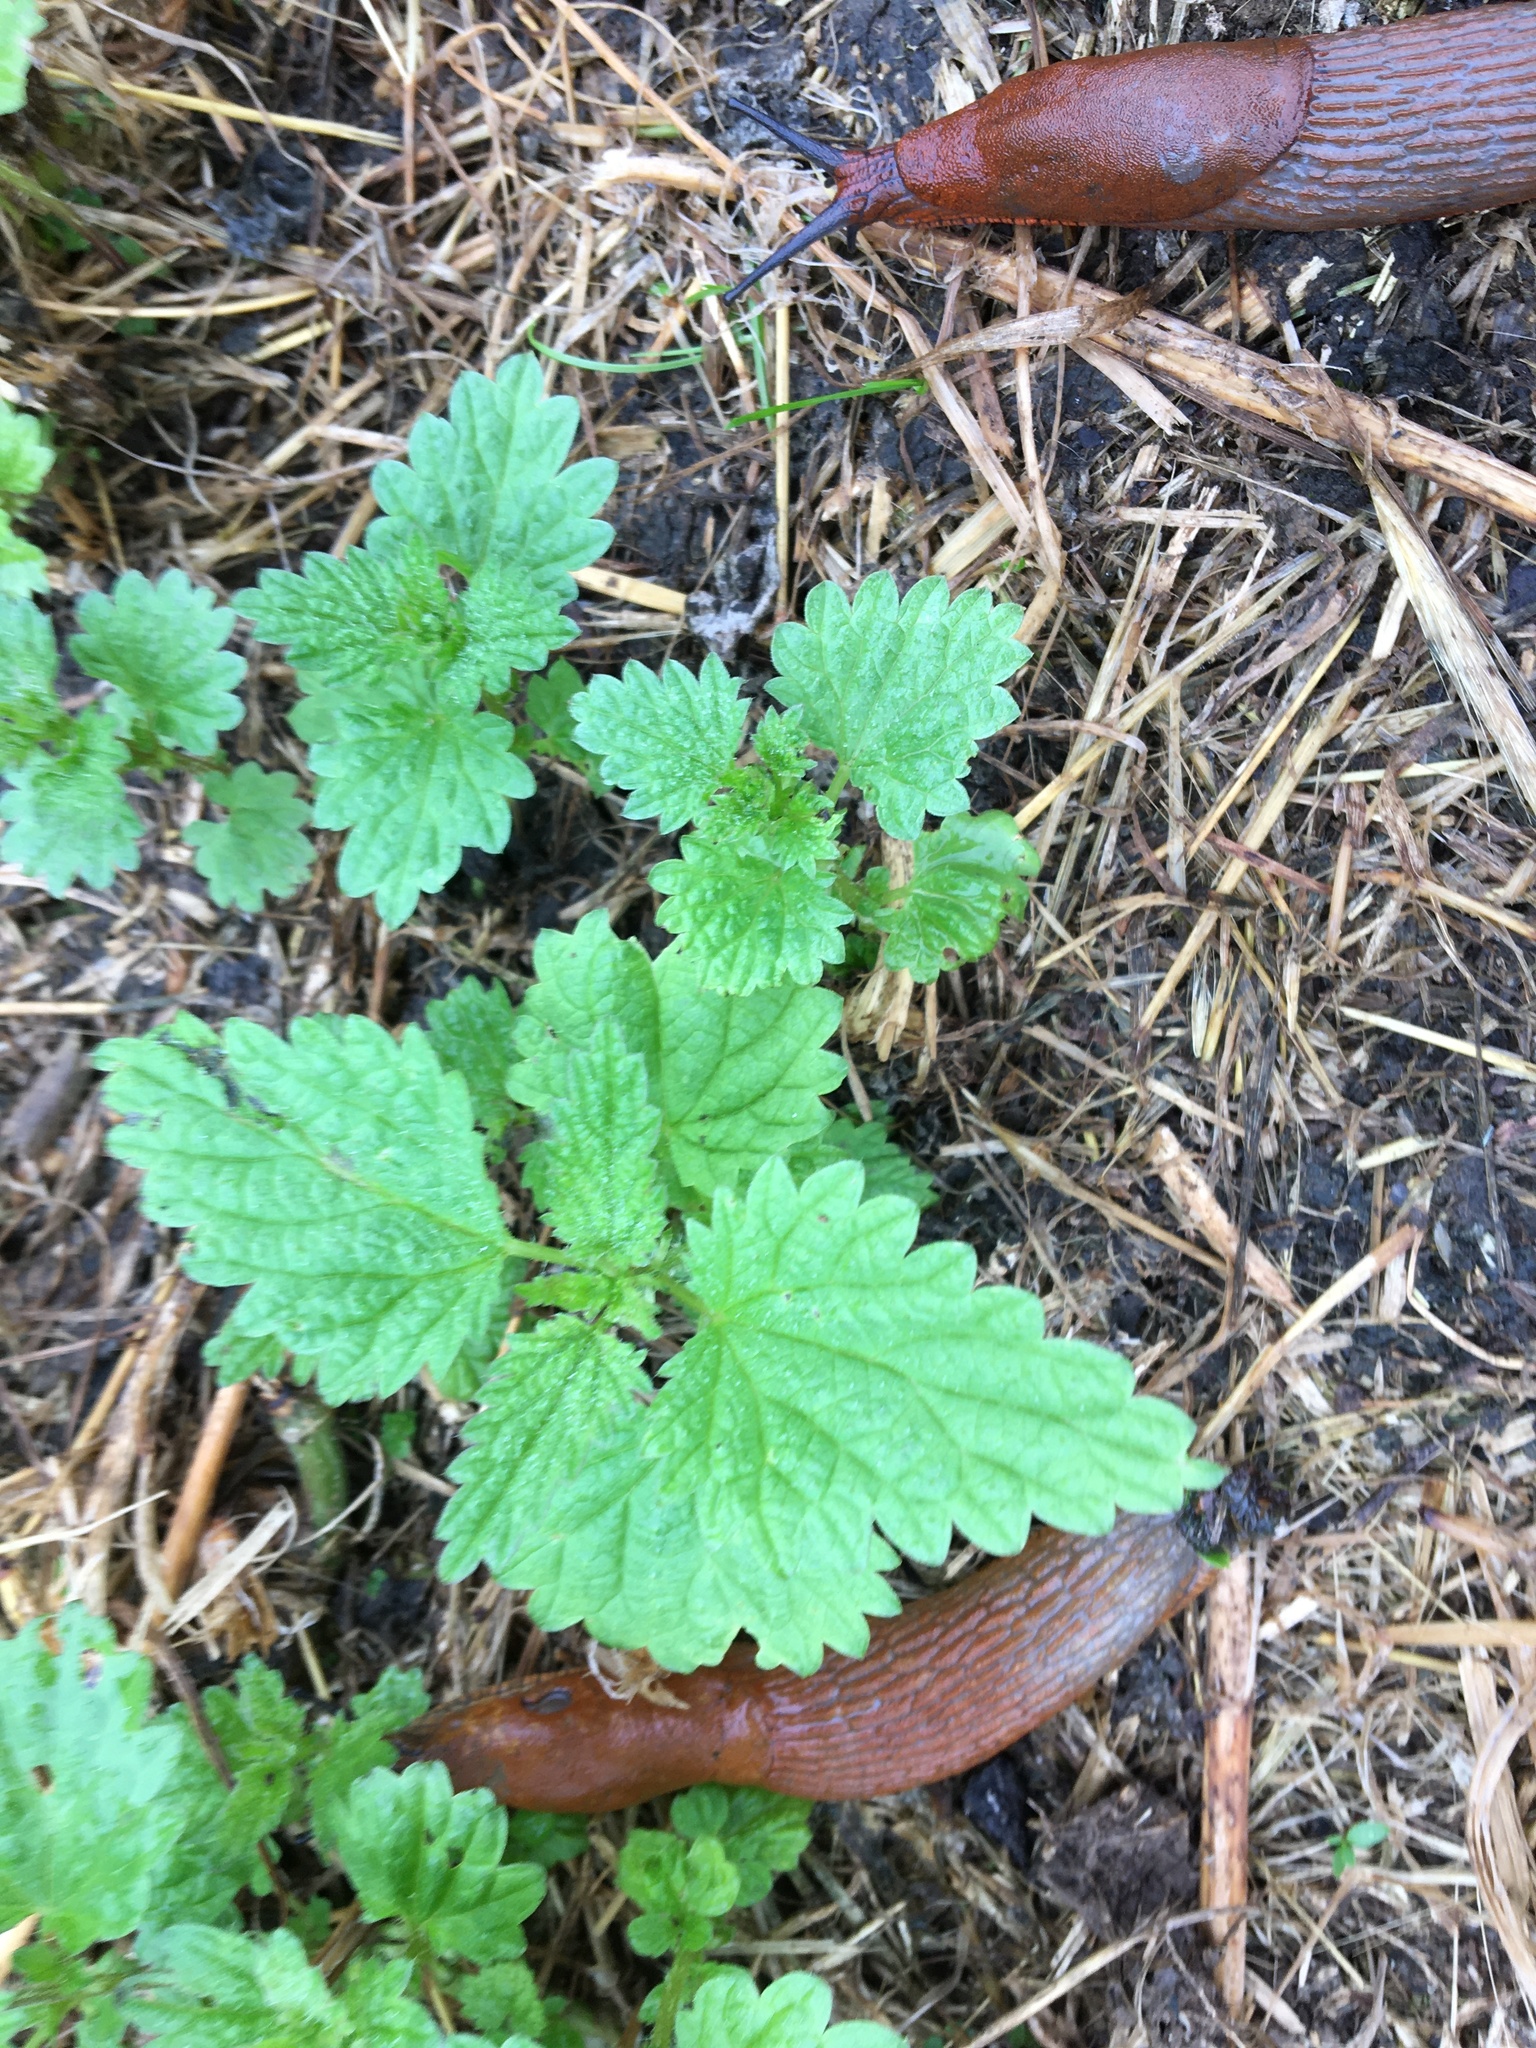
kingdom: Plantae
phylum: Tracheophyta
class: Magnoliopsida
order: Rosales
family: Urticaceae
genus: Urtica
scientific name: Urtica dioica
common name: Common nettle
